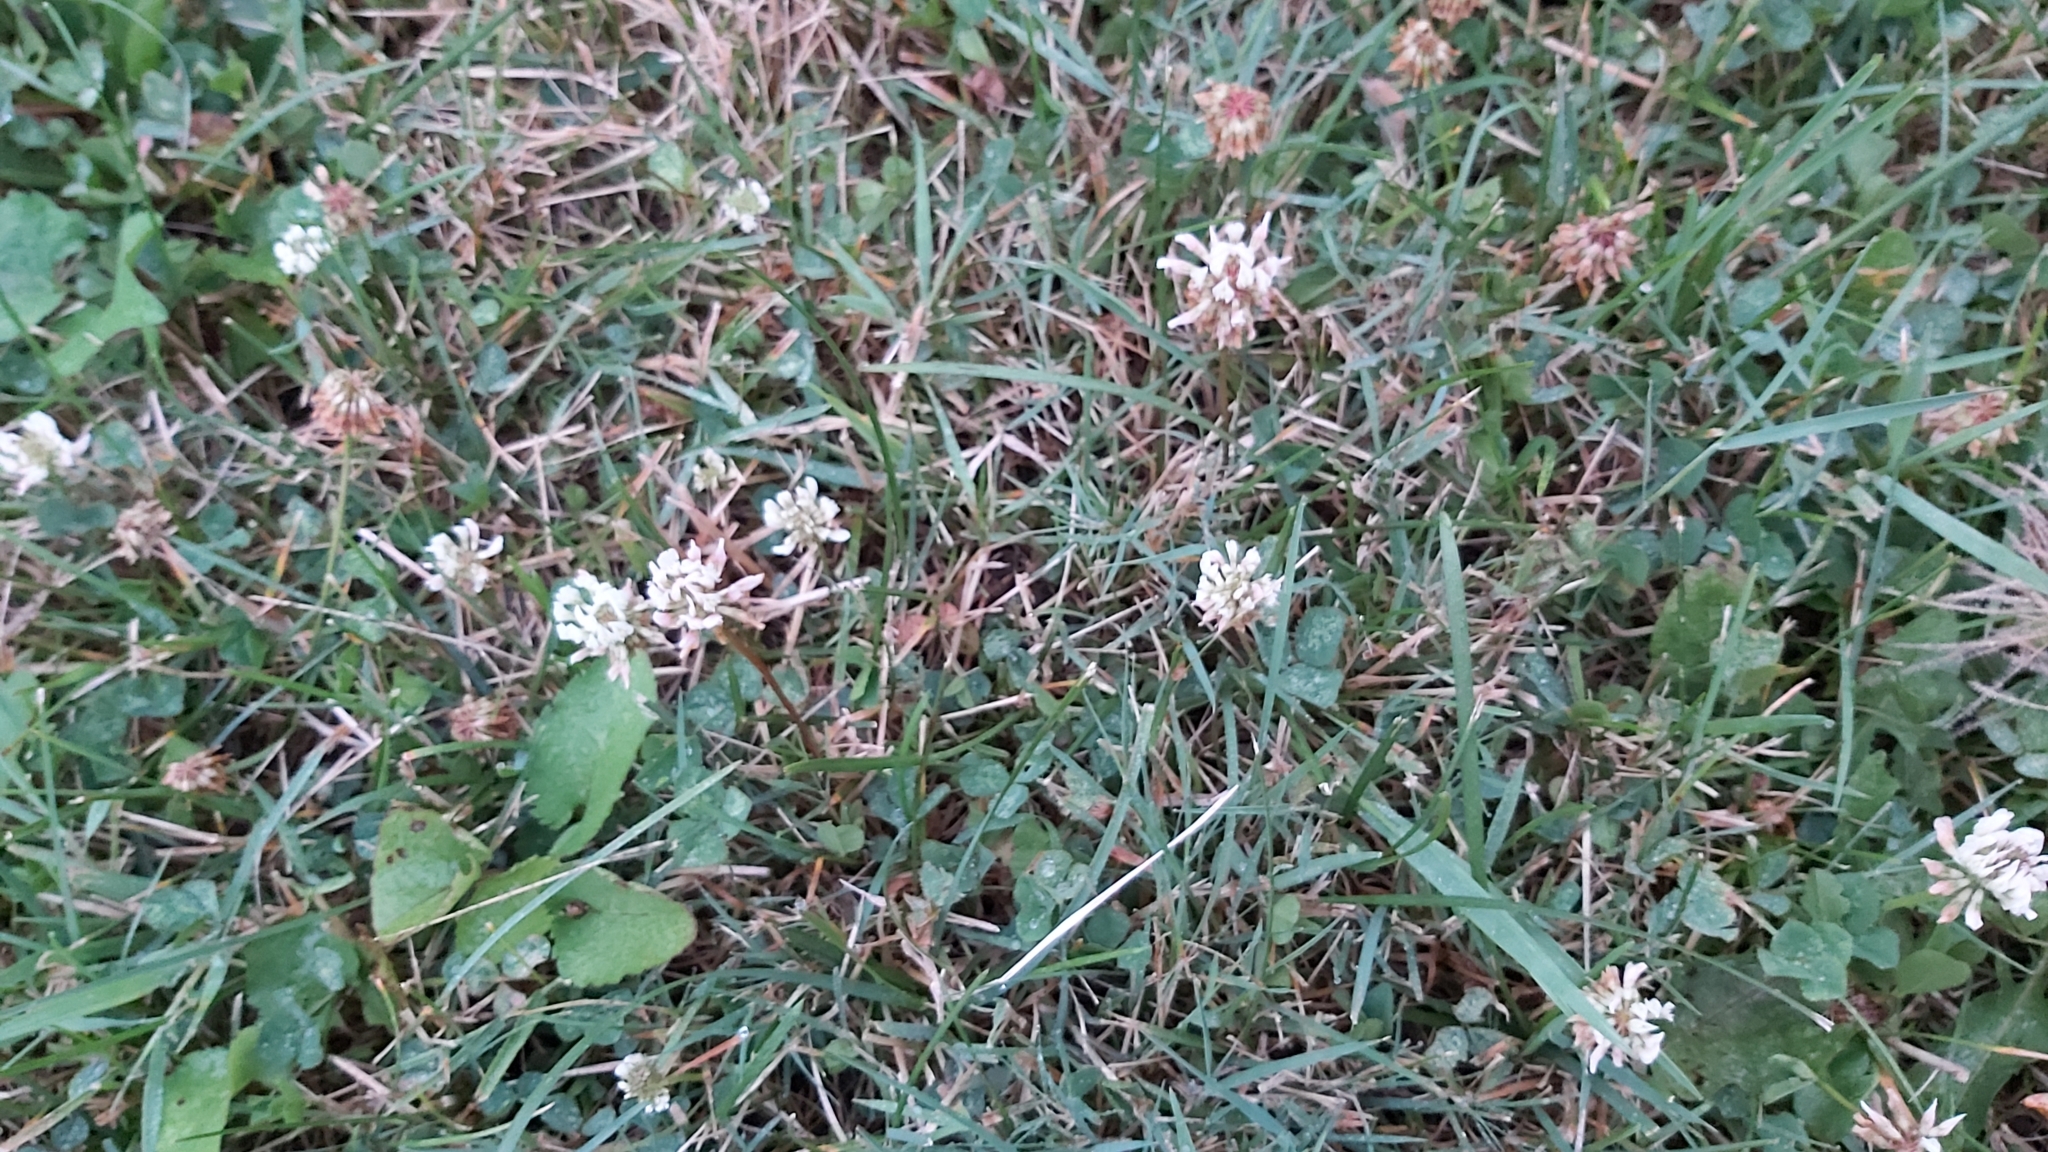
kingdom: Plantae
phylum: Tracheophyta
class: Magnoliopsida
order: Fabales
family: Fabaceae
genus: Trifolium
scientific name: Trifolium repens
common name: White clover
